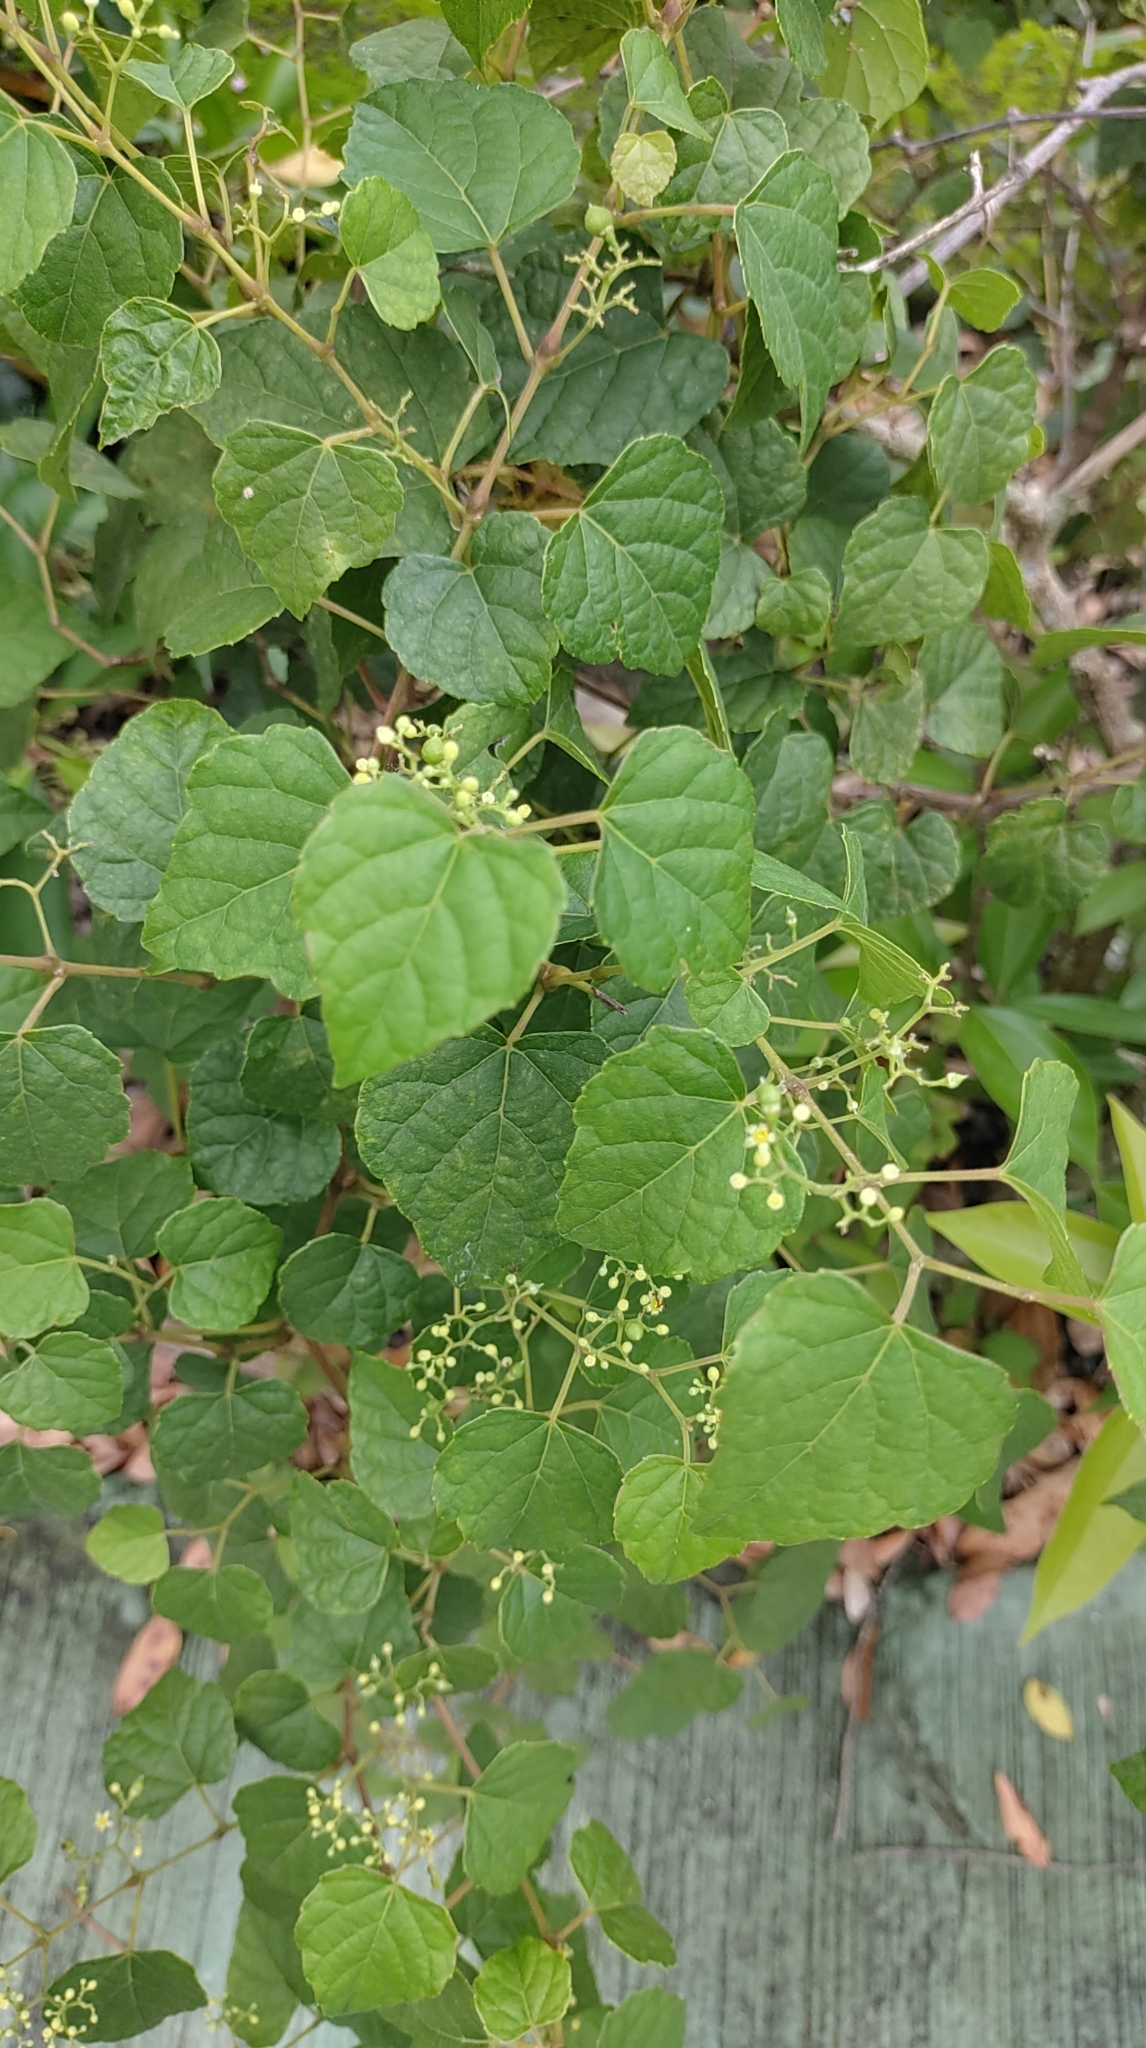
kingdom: Plantae
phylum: Tracheophyta
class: Magnoliopsida
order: Vitales
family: Vitaceae
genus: Ampelopsis
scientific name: Ampelopsis glandulosa
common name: Amur peppervine
